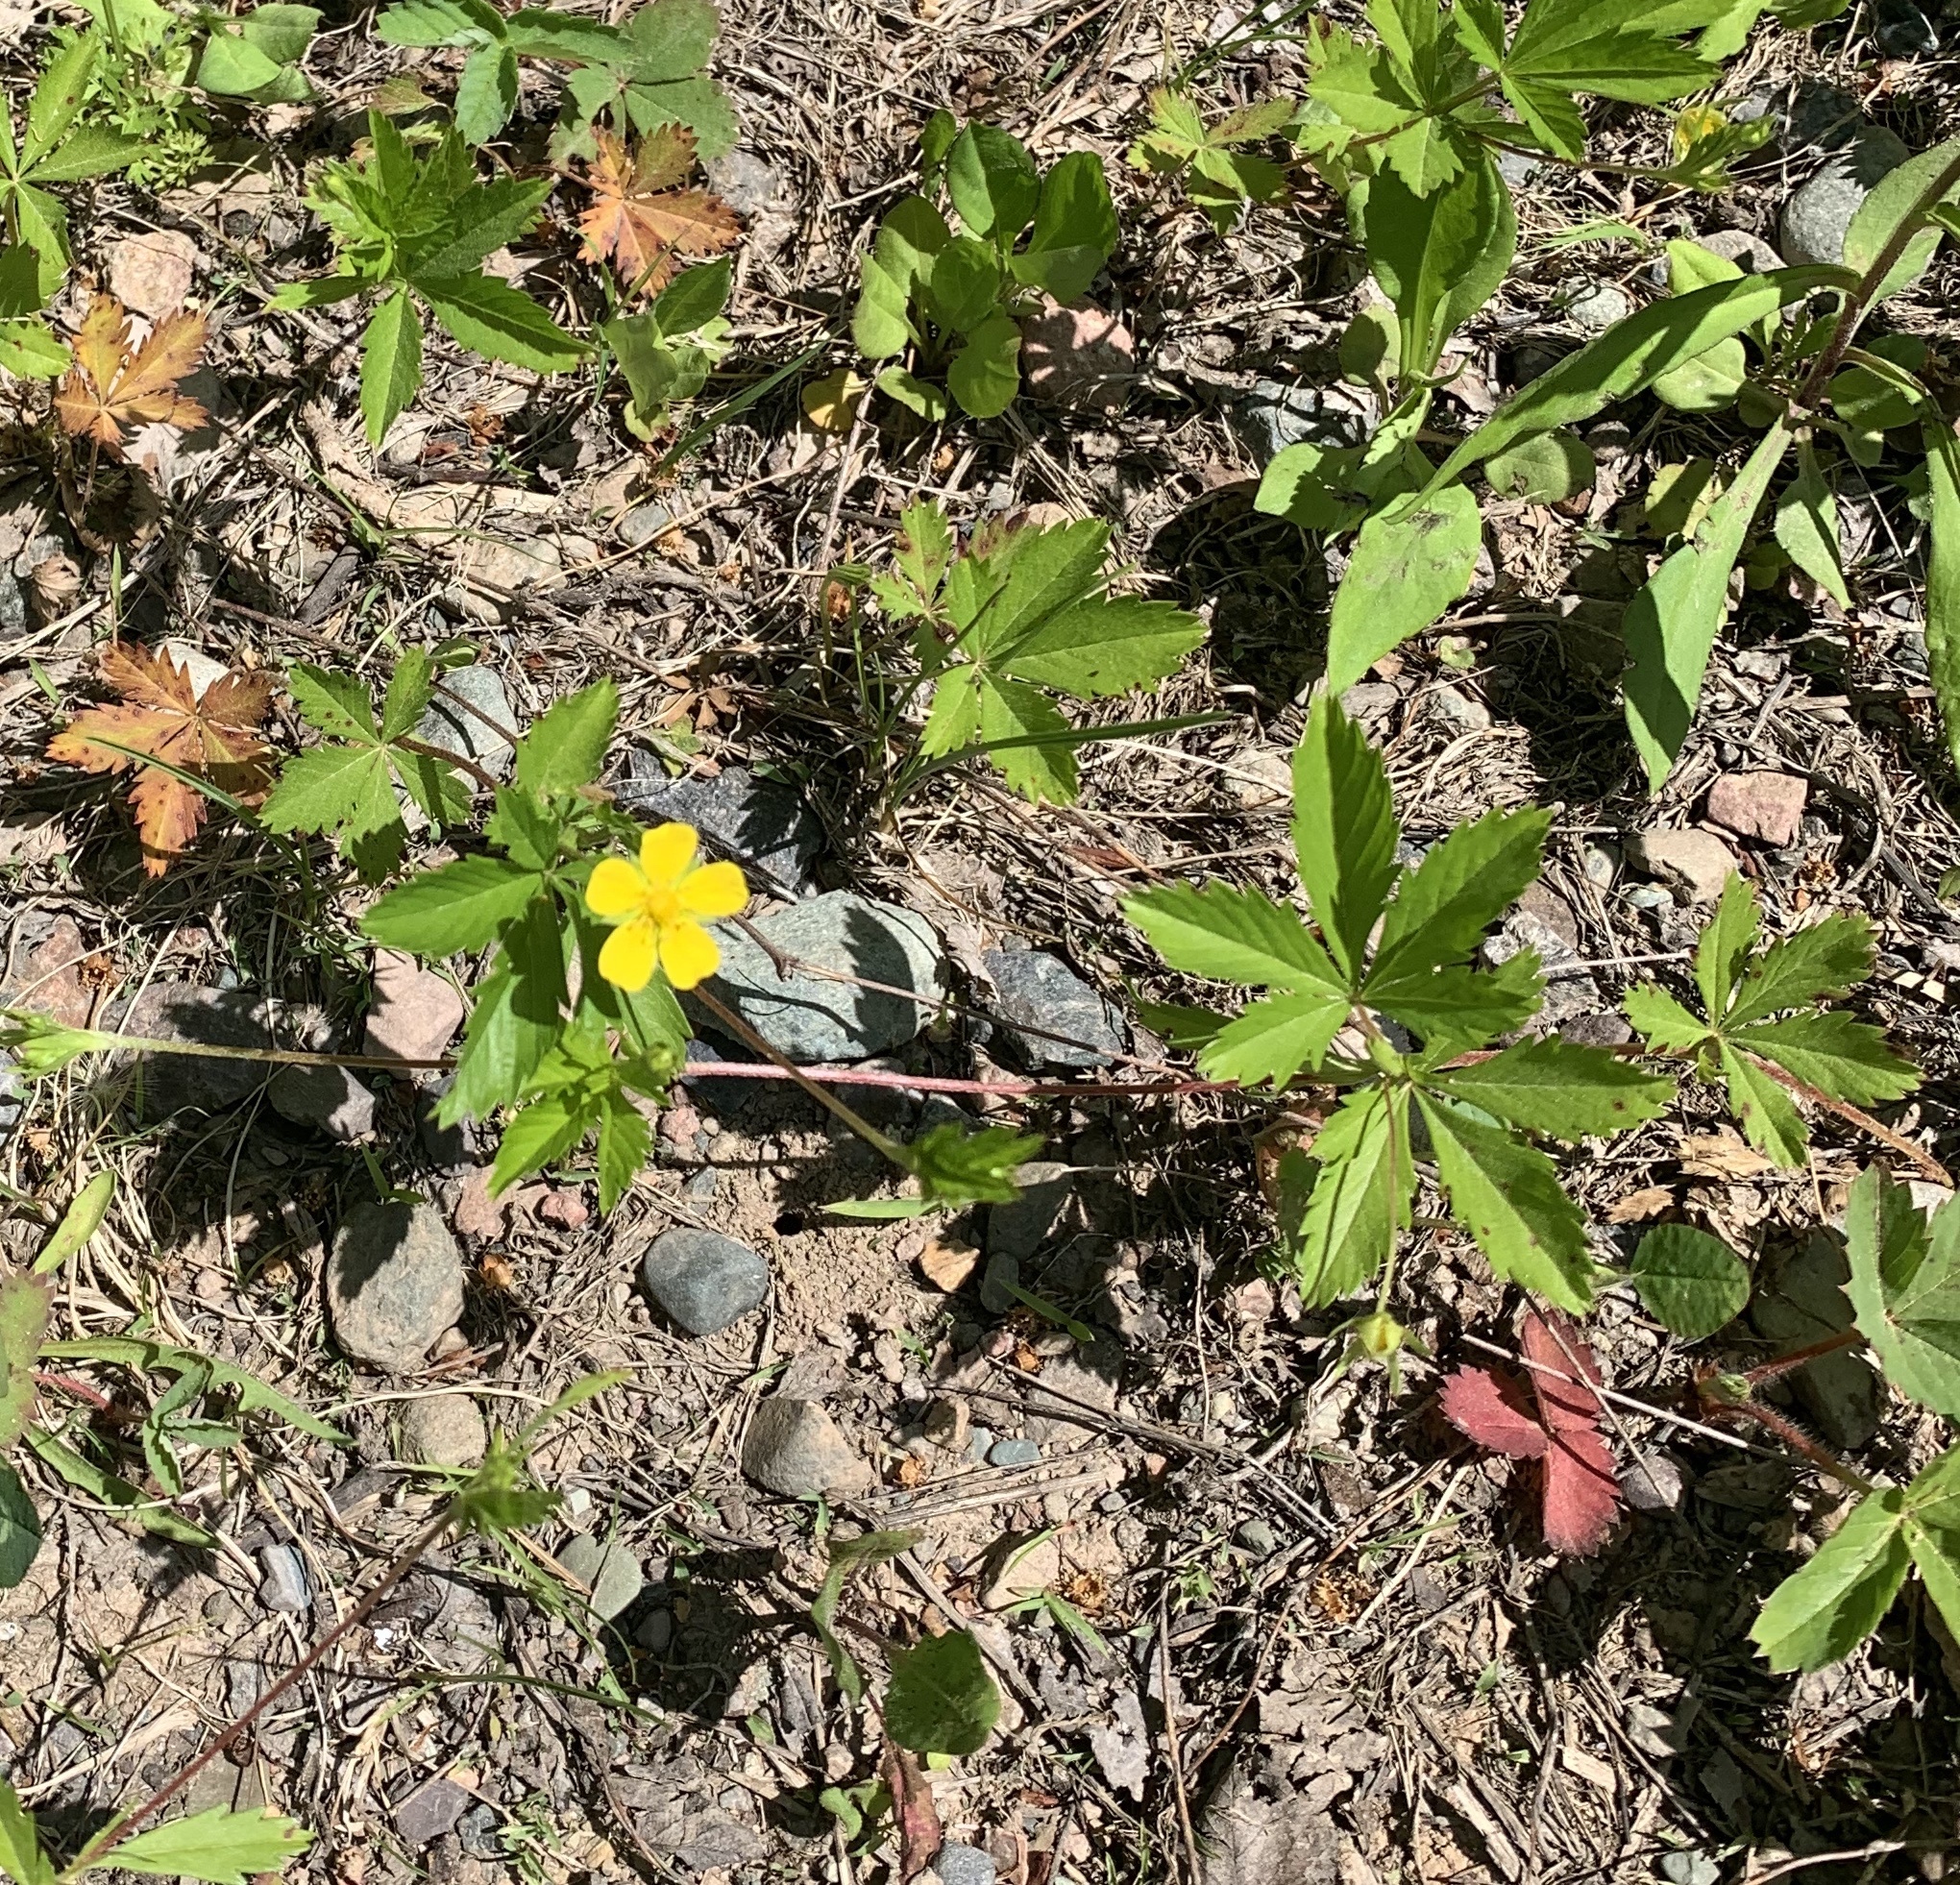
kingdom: Plantae
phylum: Tracheophyta
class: Magnoliopsida
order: Rosales
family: Rosaceae
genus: Potentilla
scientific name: Potentilla simplex
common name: Old field cinquefoil
